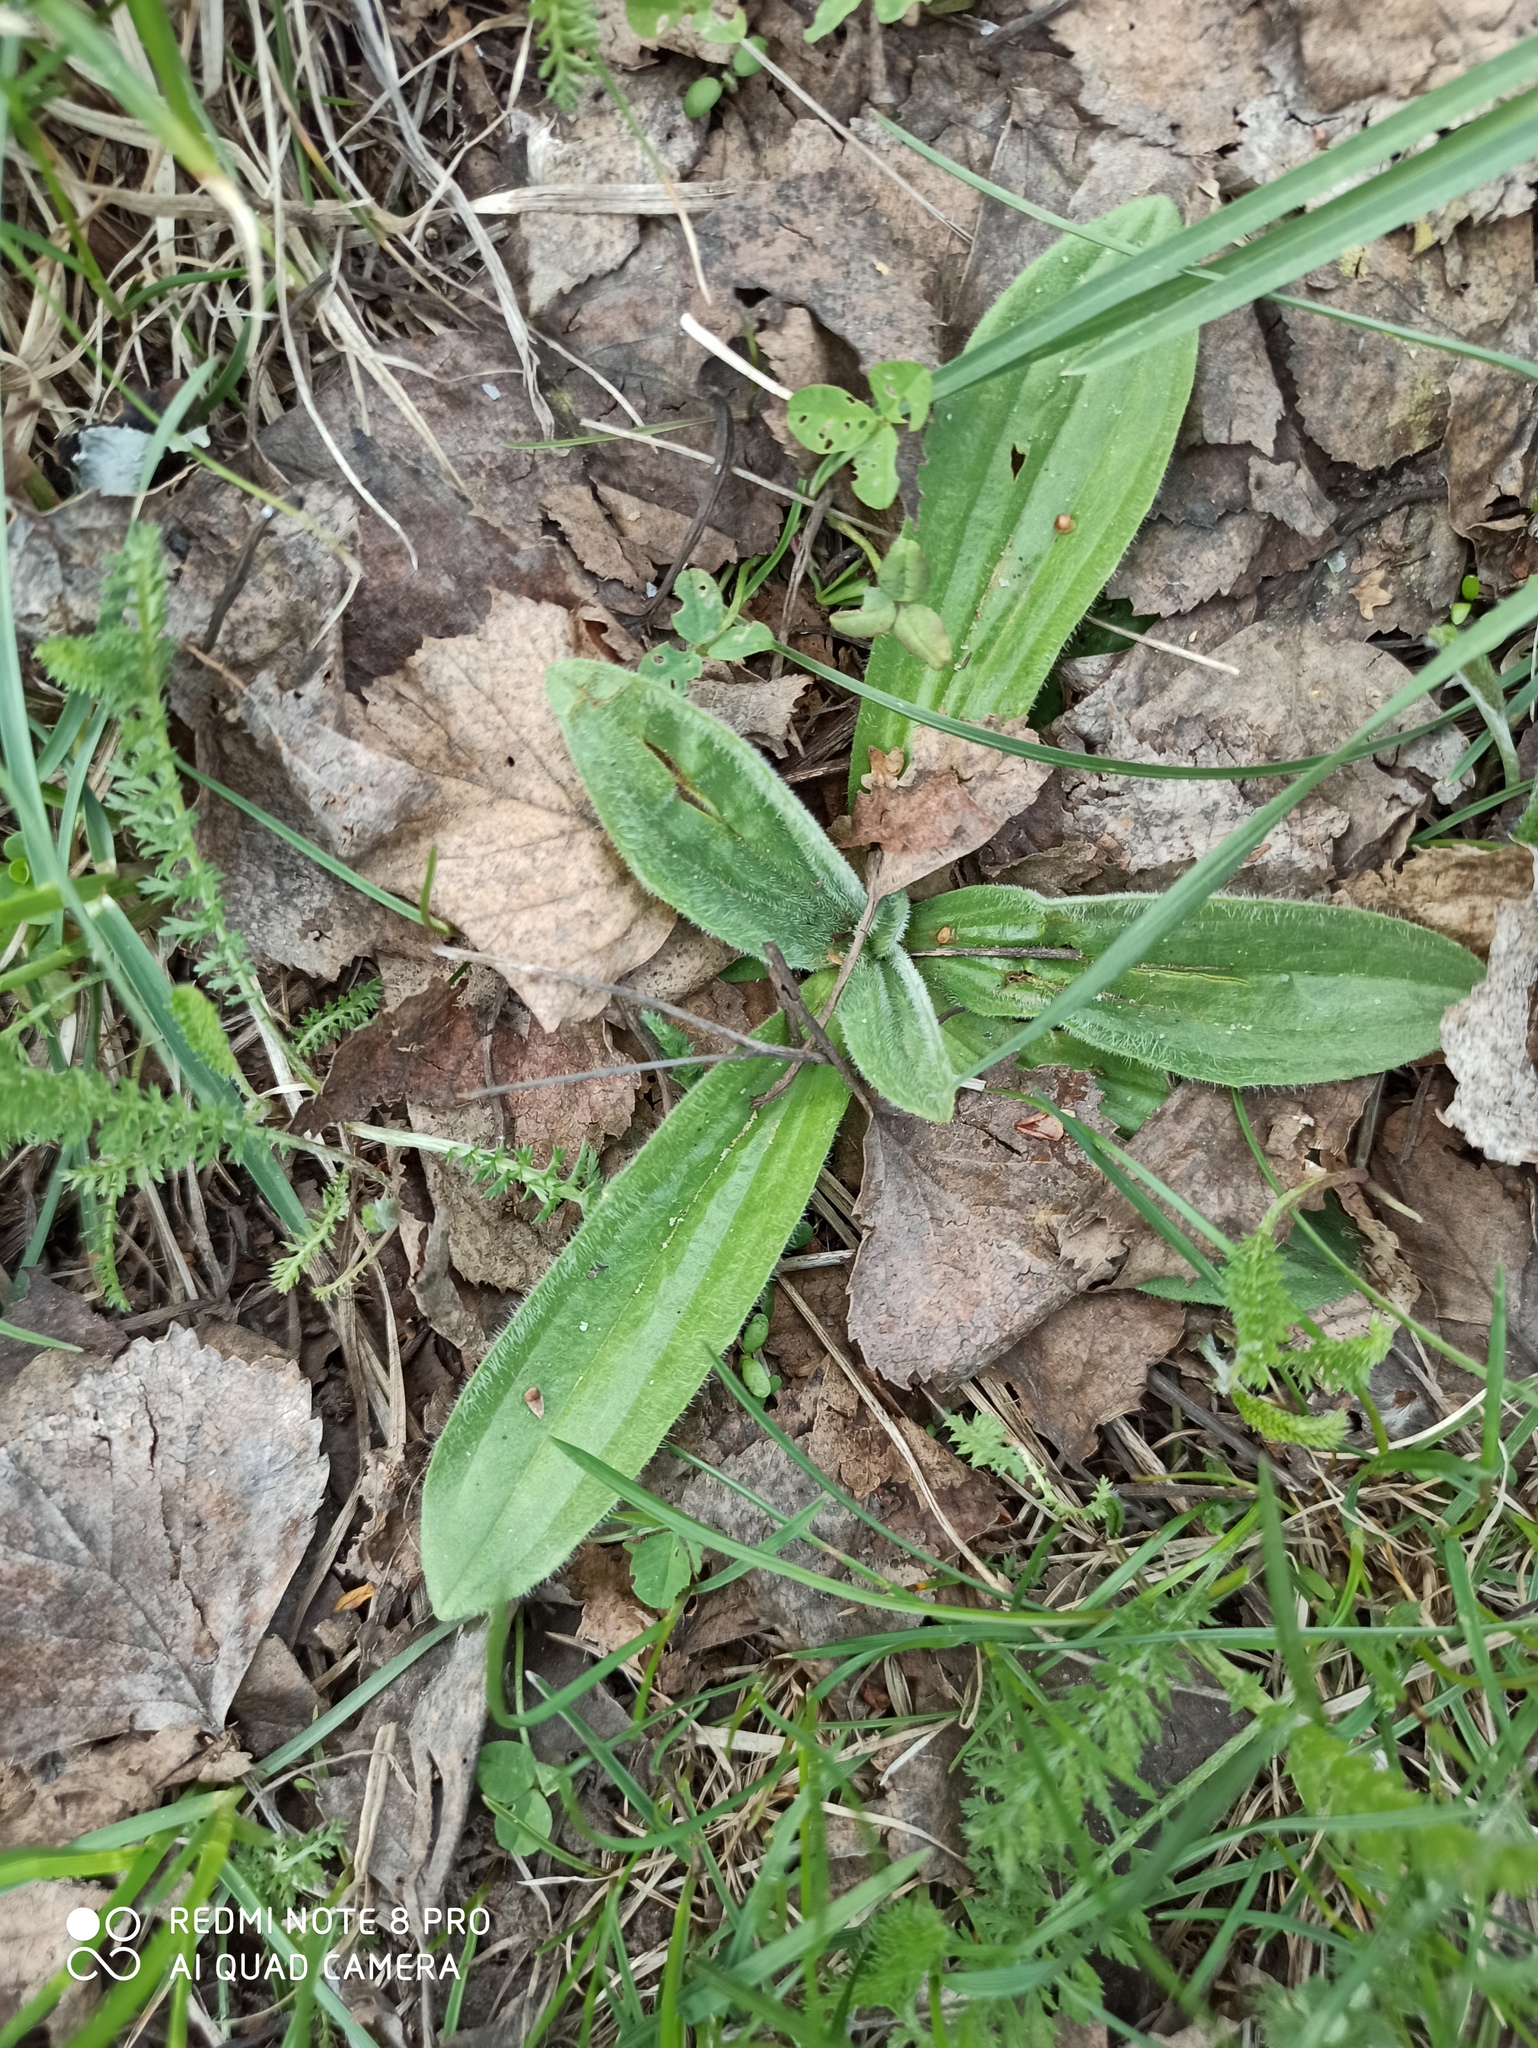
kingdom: Plantae
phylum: Tracheophyta
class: Magnoliopsida
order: Lamiales
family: Plantaginaceae
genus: Plantago
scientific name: Plantago media
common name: Hoary plantain
